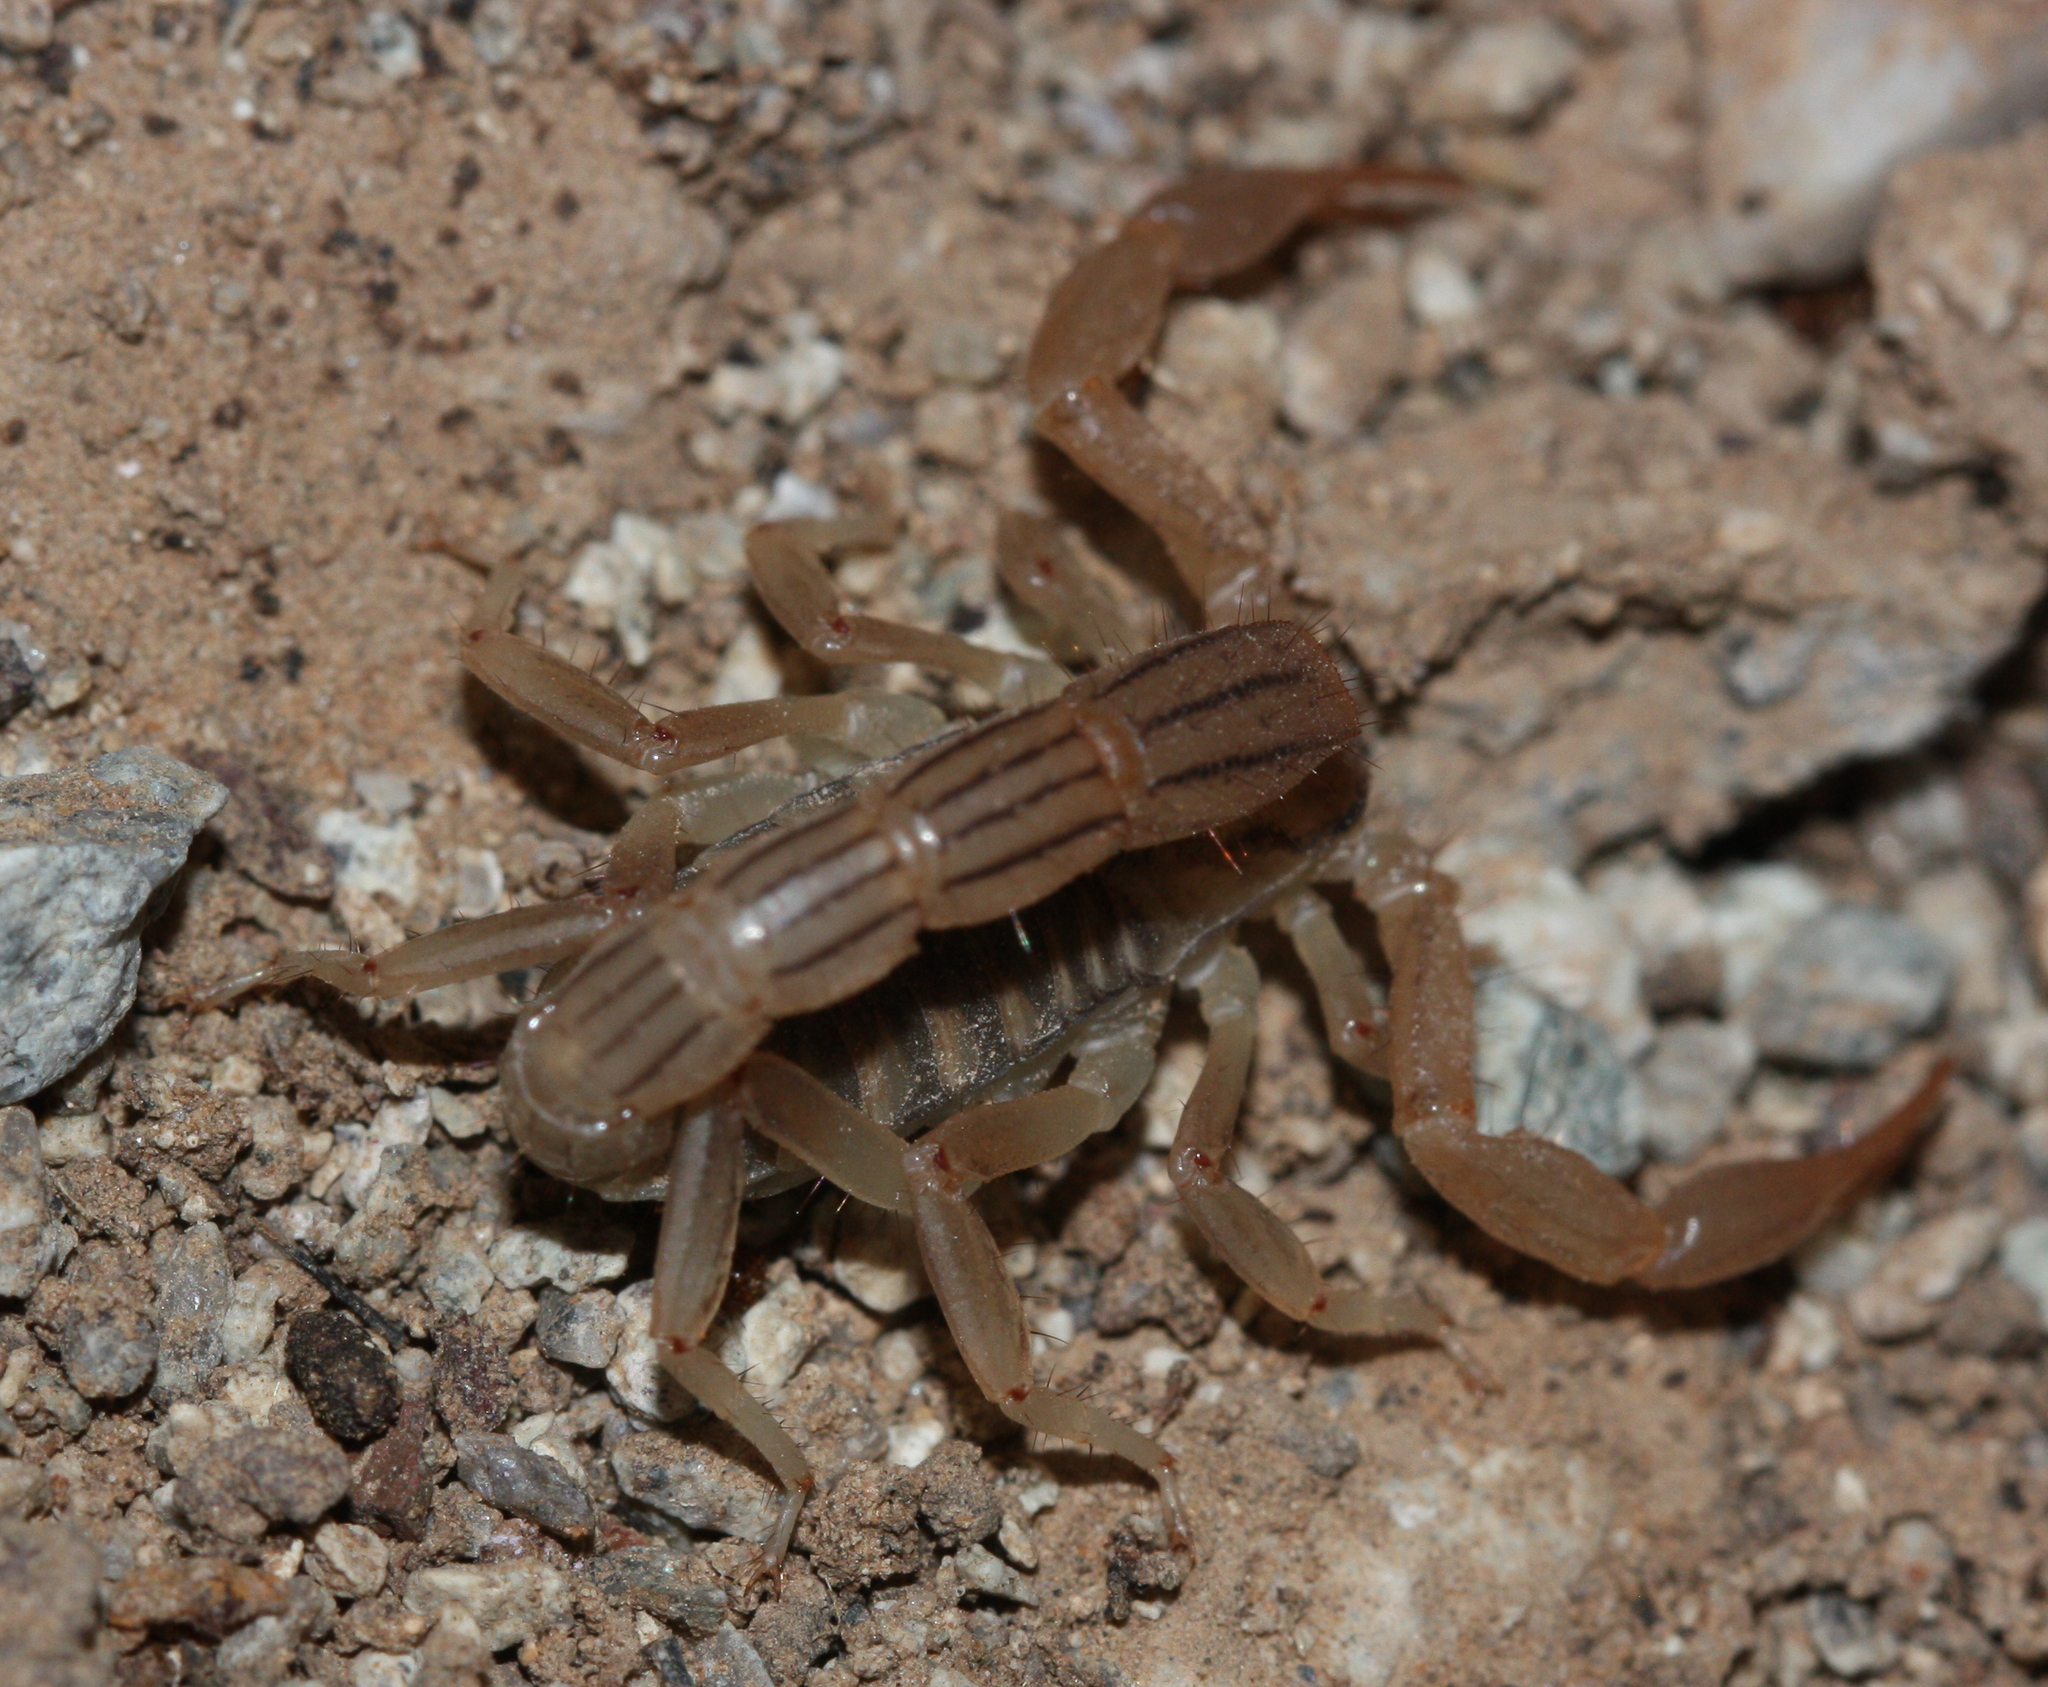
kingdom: Animalia
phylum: Arthropoda
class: Arachnida
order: Scorpiones
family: Vaejovidae
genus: Paravaejovis
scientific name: Paravaejovis spinigerus
